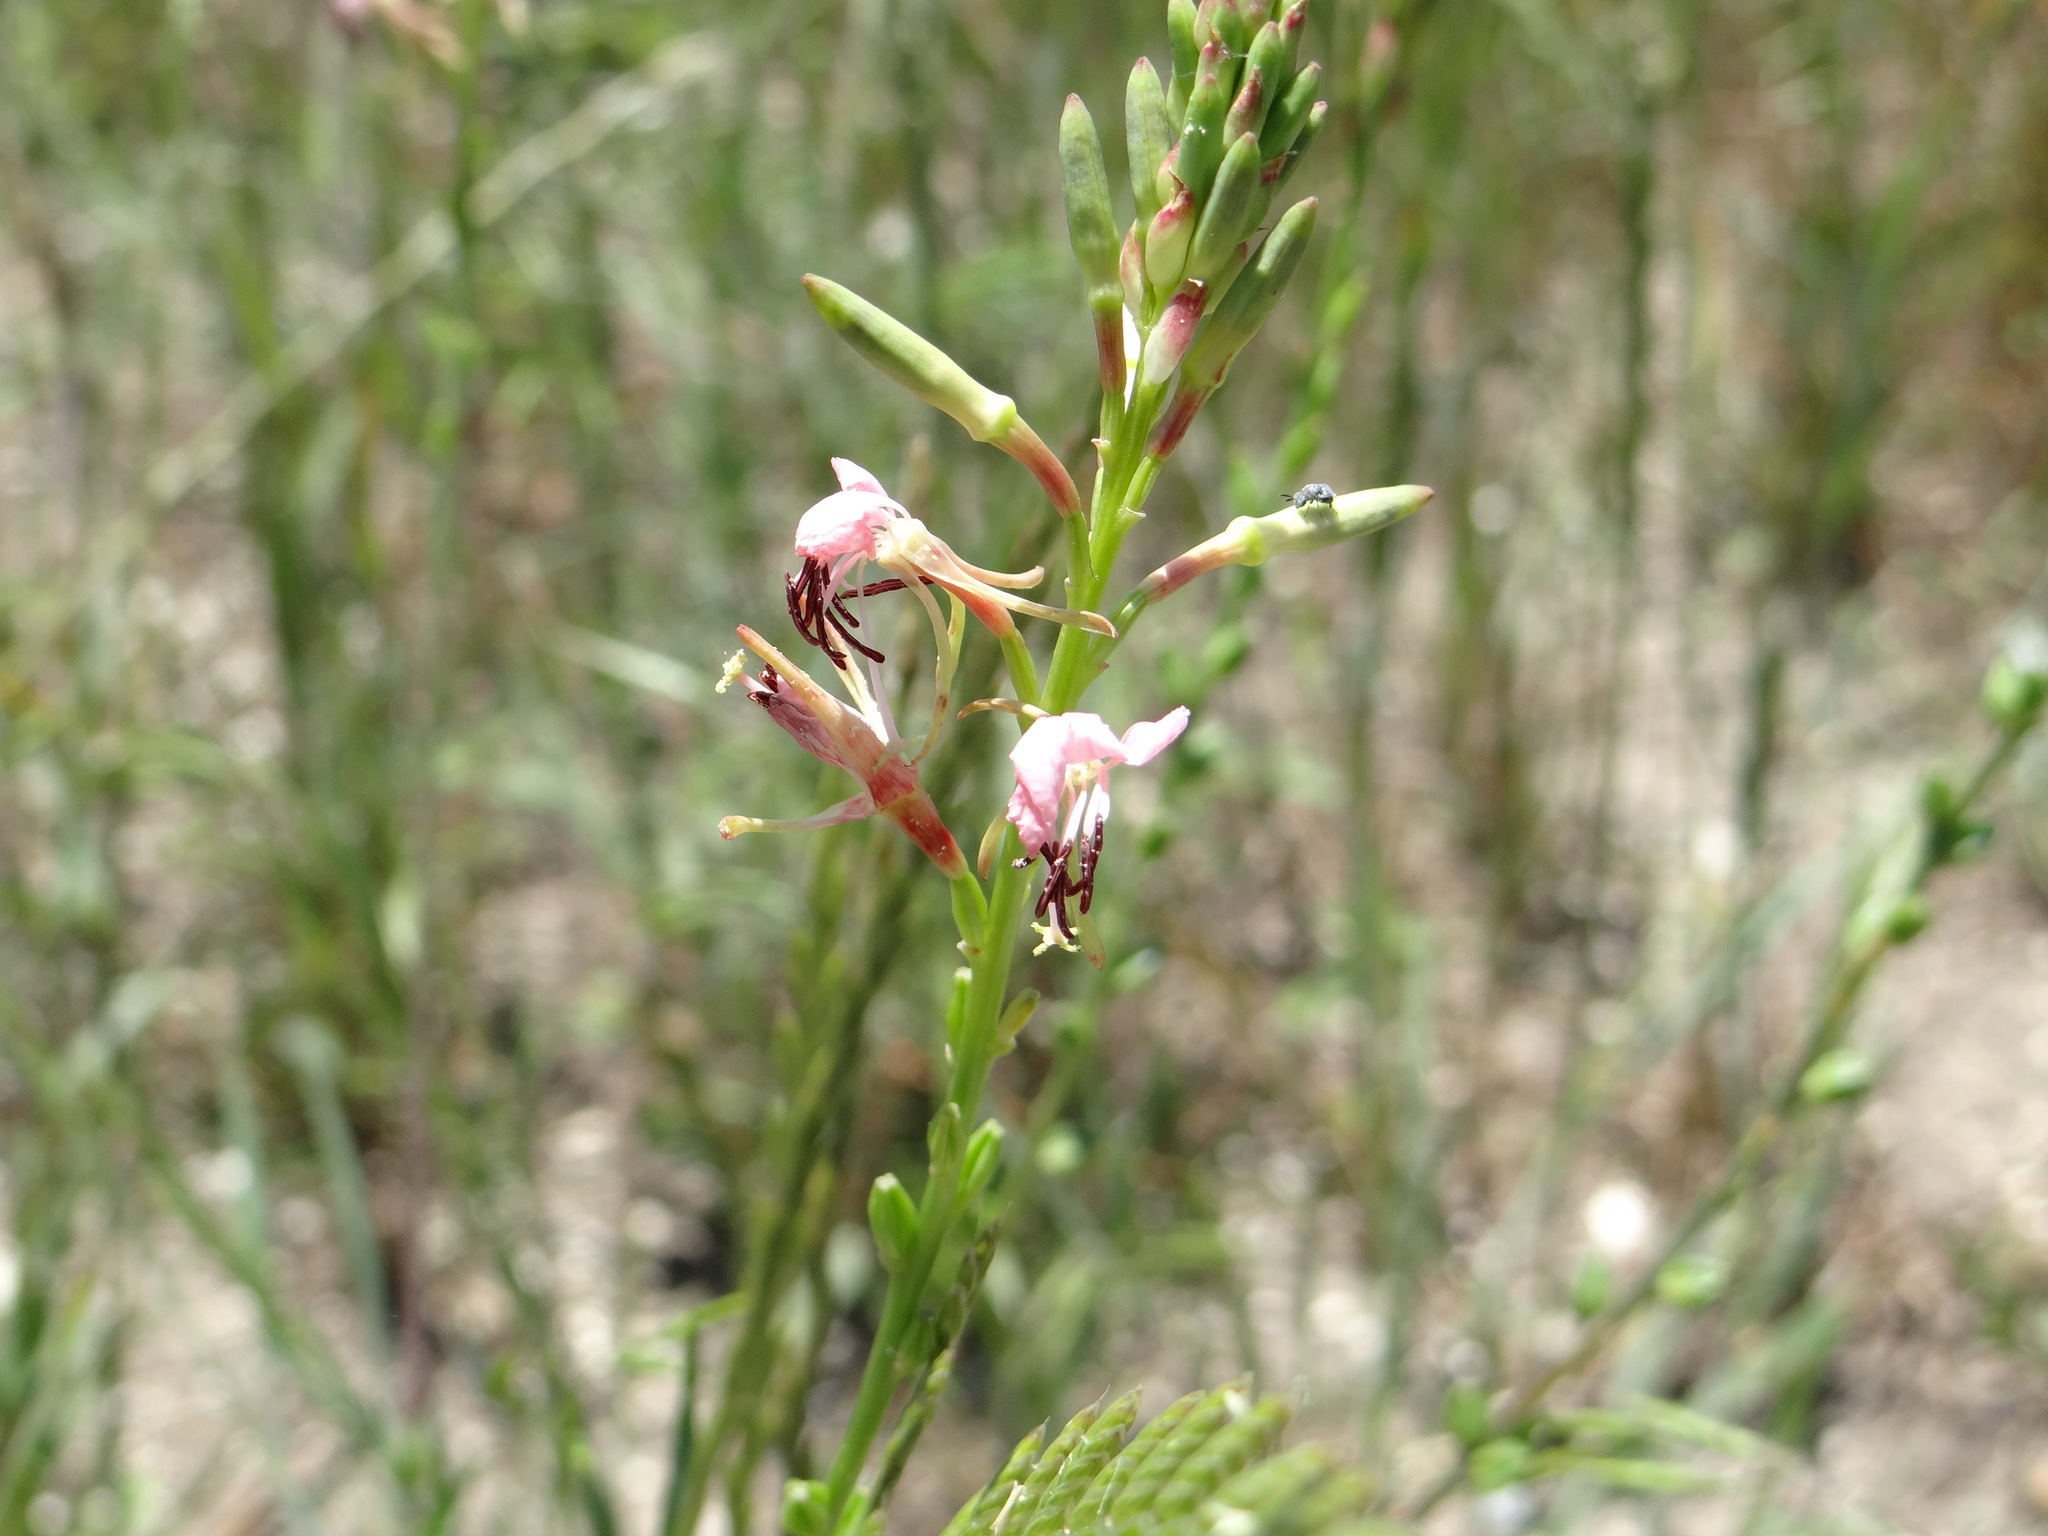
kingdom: Plantae
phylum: Tracheophyta
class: Magnoliopsida
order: Myrtales
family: Onagraceae
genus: Oenothera
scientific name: Oenothera suffulta
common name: Kisses
